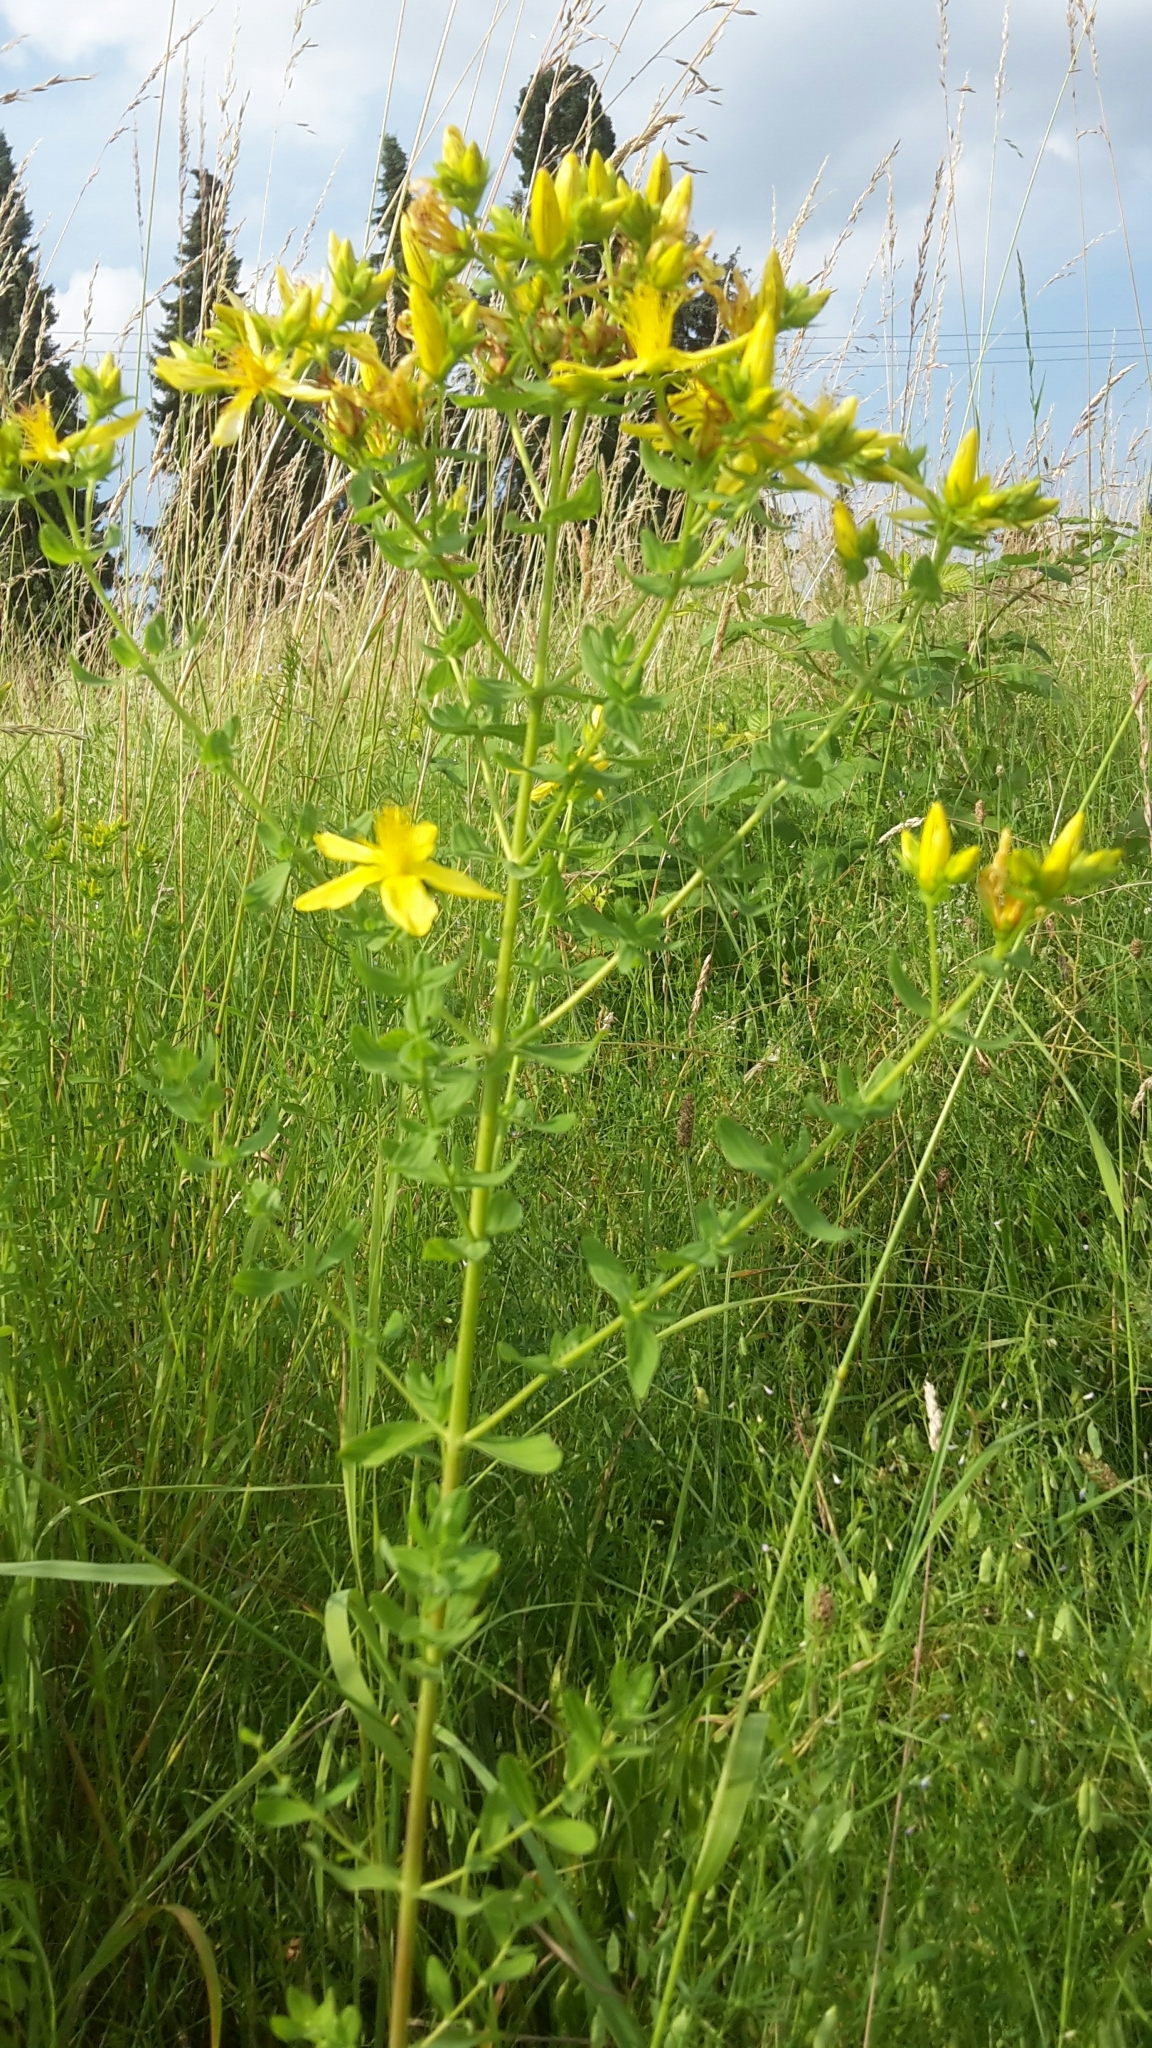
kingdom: Plantae
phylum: Tracheophyta
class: Magnoliopsida
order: Malpighiales
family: Hypericaceae
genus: Hypericum
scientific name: Hypericum perforatum
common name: Common st. johnswort
